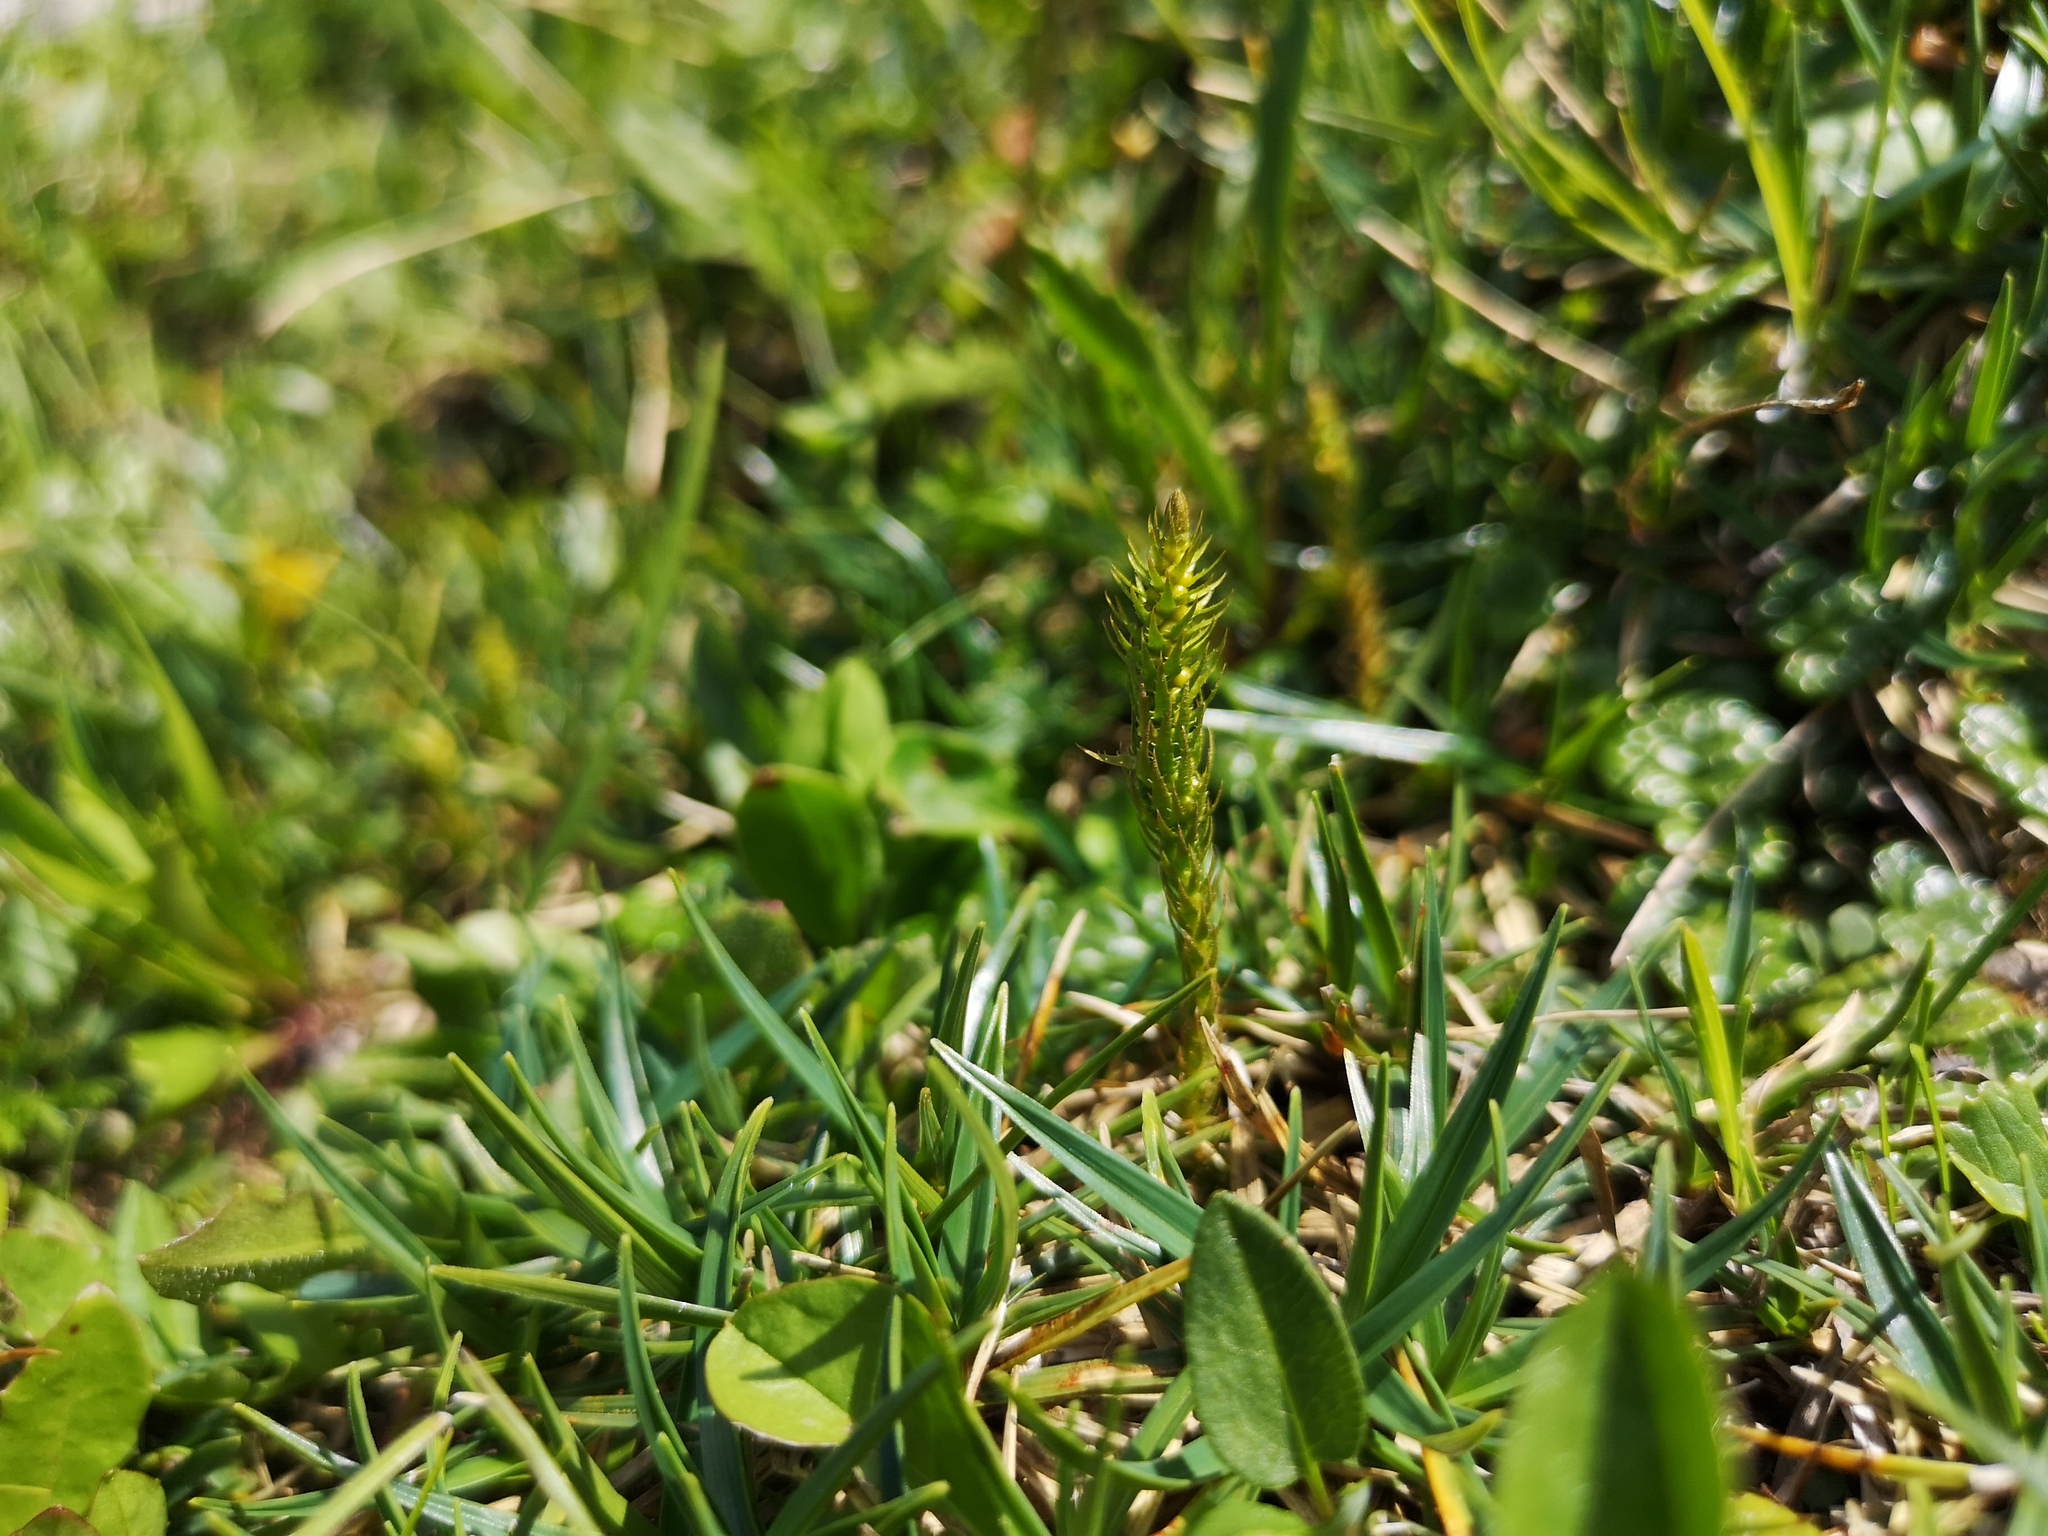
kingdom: Plantae
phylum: Tracheophyta
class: Lycopodiopsida
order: Selaginellales
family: Selaginellaceae
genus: Selaginella
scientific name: Selaginella selaginoides
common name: Prickly mountain-moss
